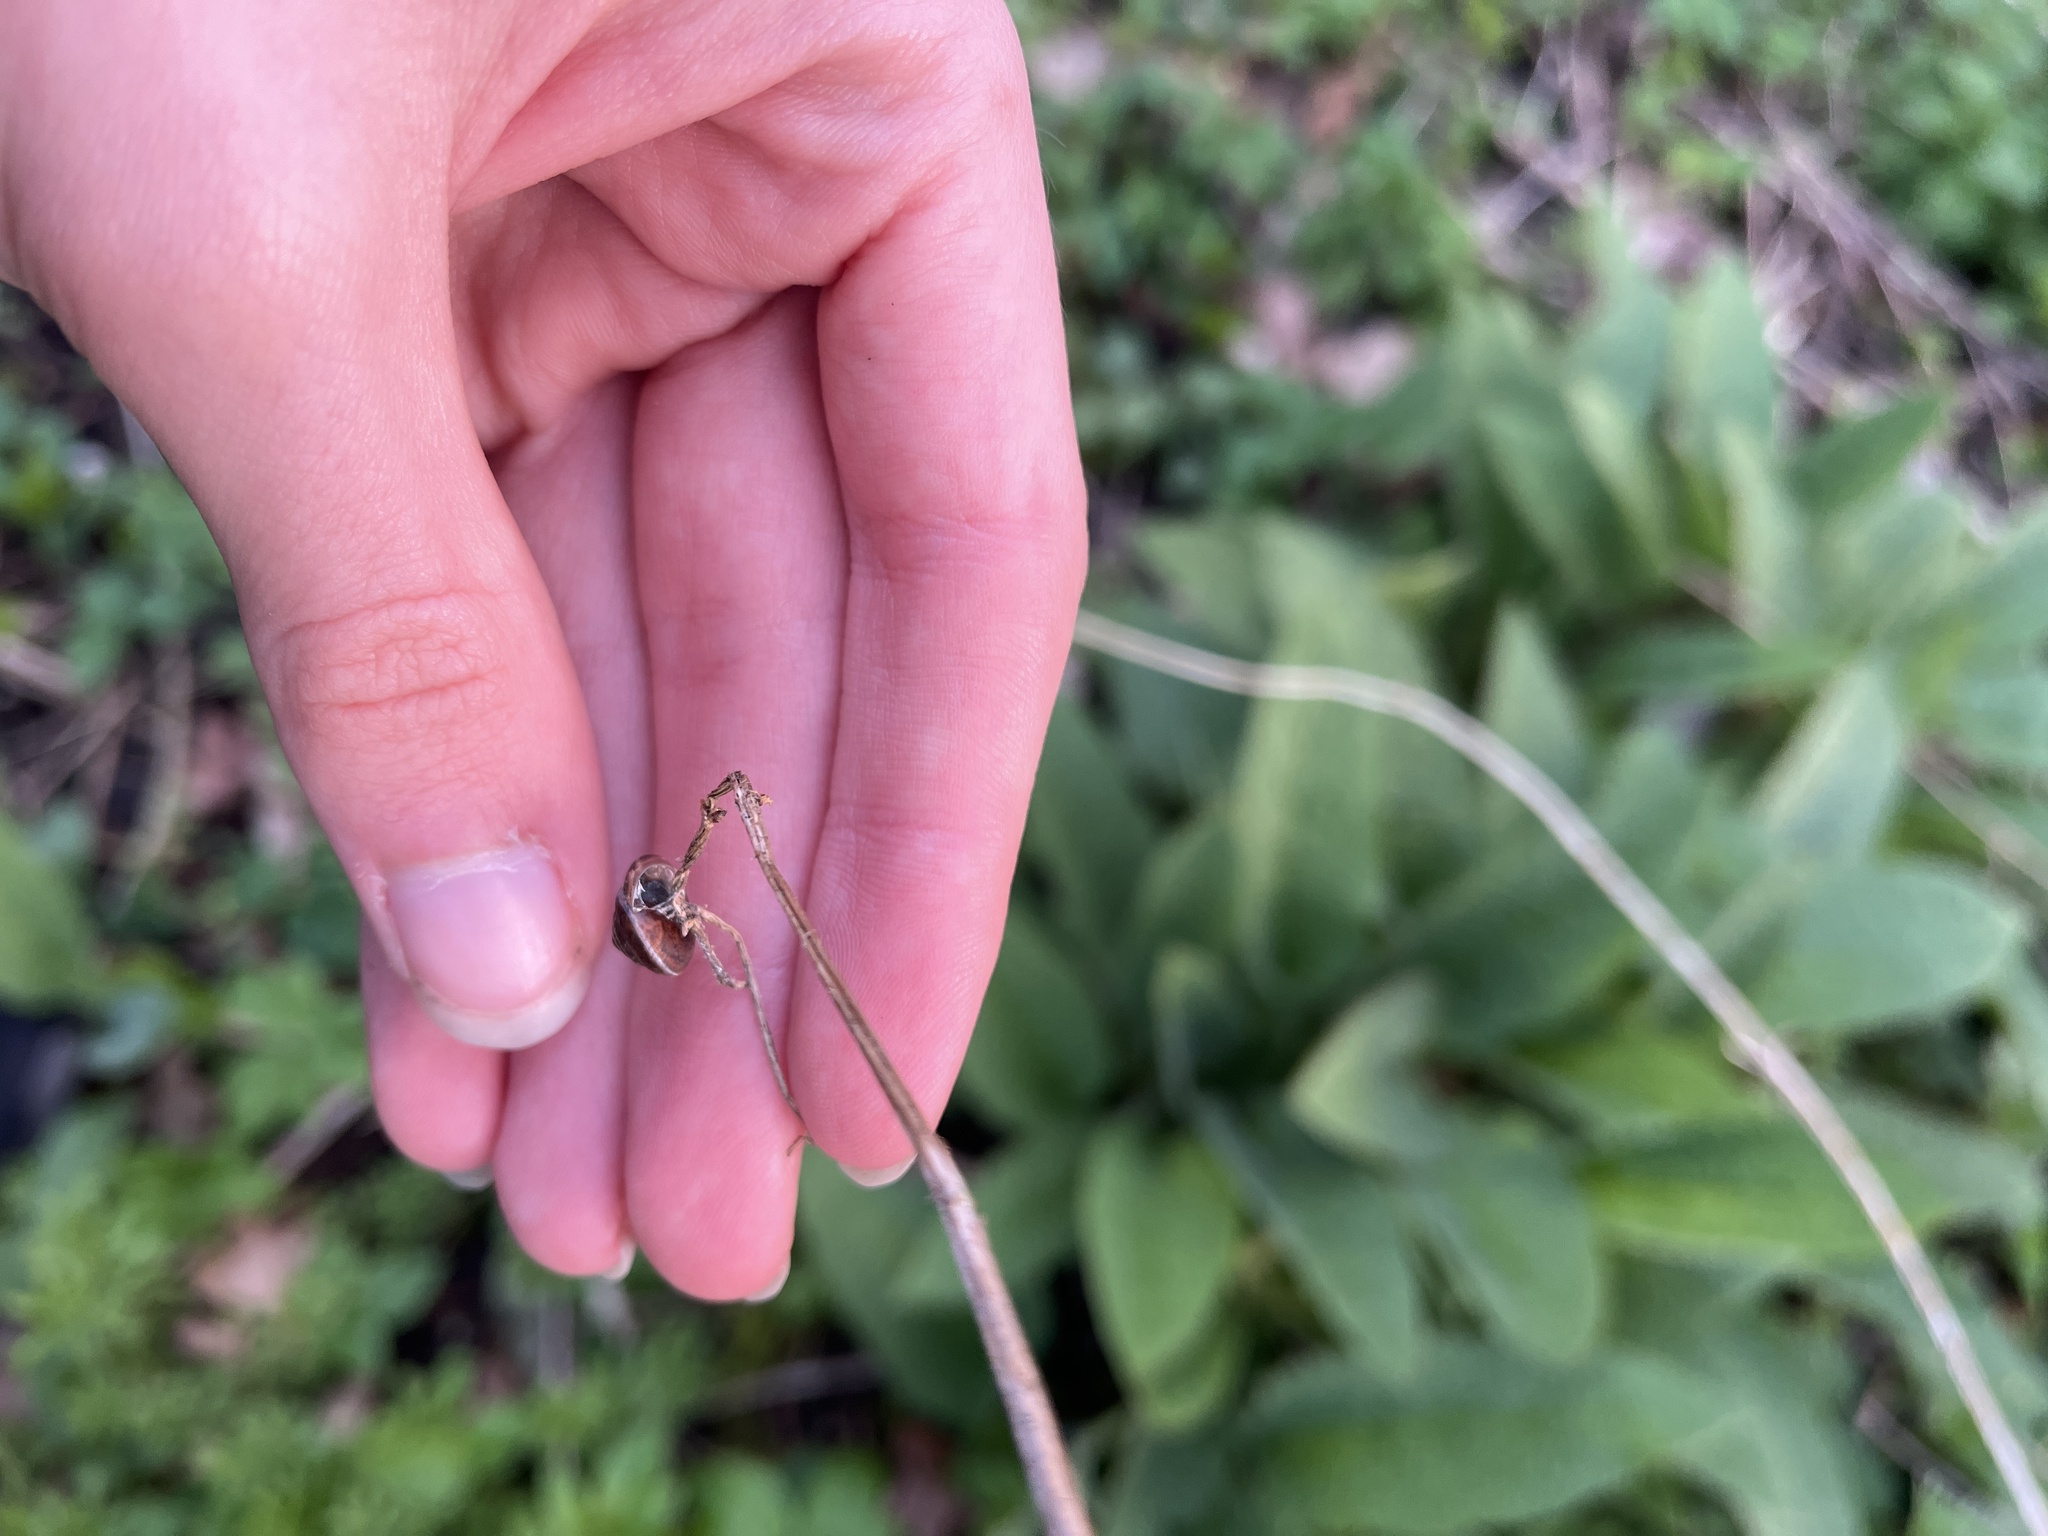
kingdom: Animalia
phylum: Mollusca
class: Gastropoda
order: Stylommatophora
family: Hygromiidae
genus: Hygromia
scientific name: Hygromia cinctella
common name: Girdled snail
